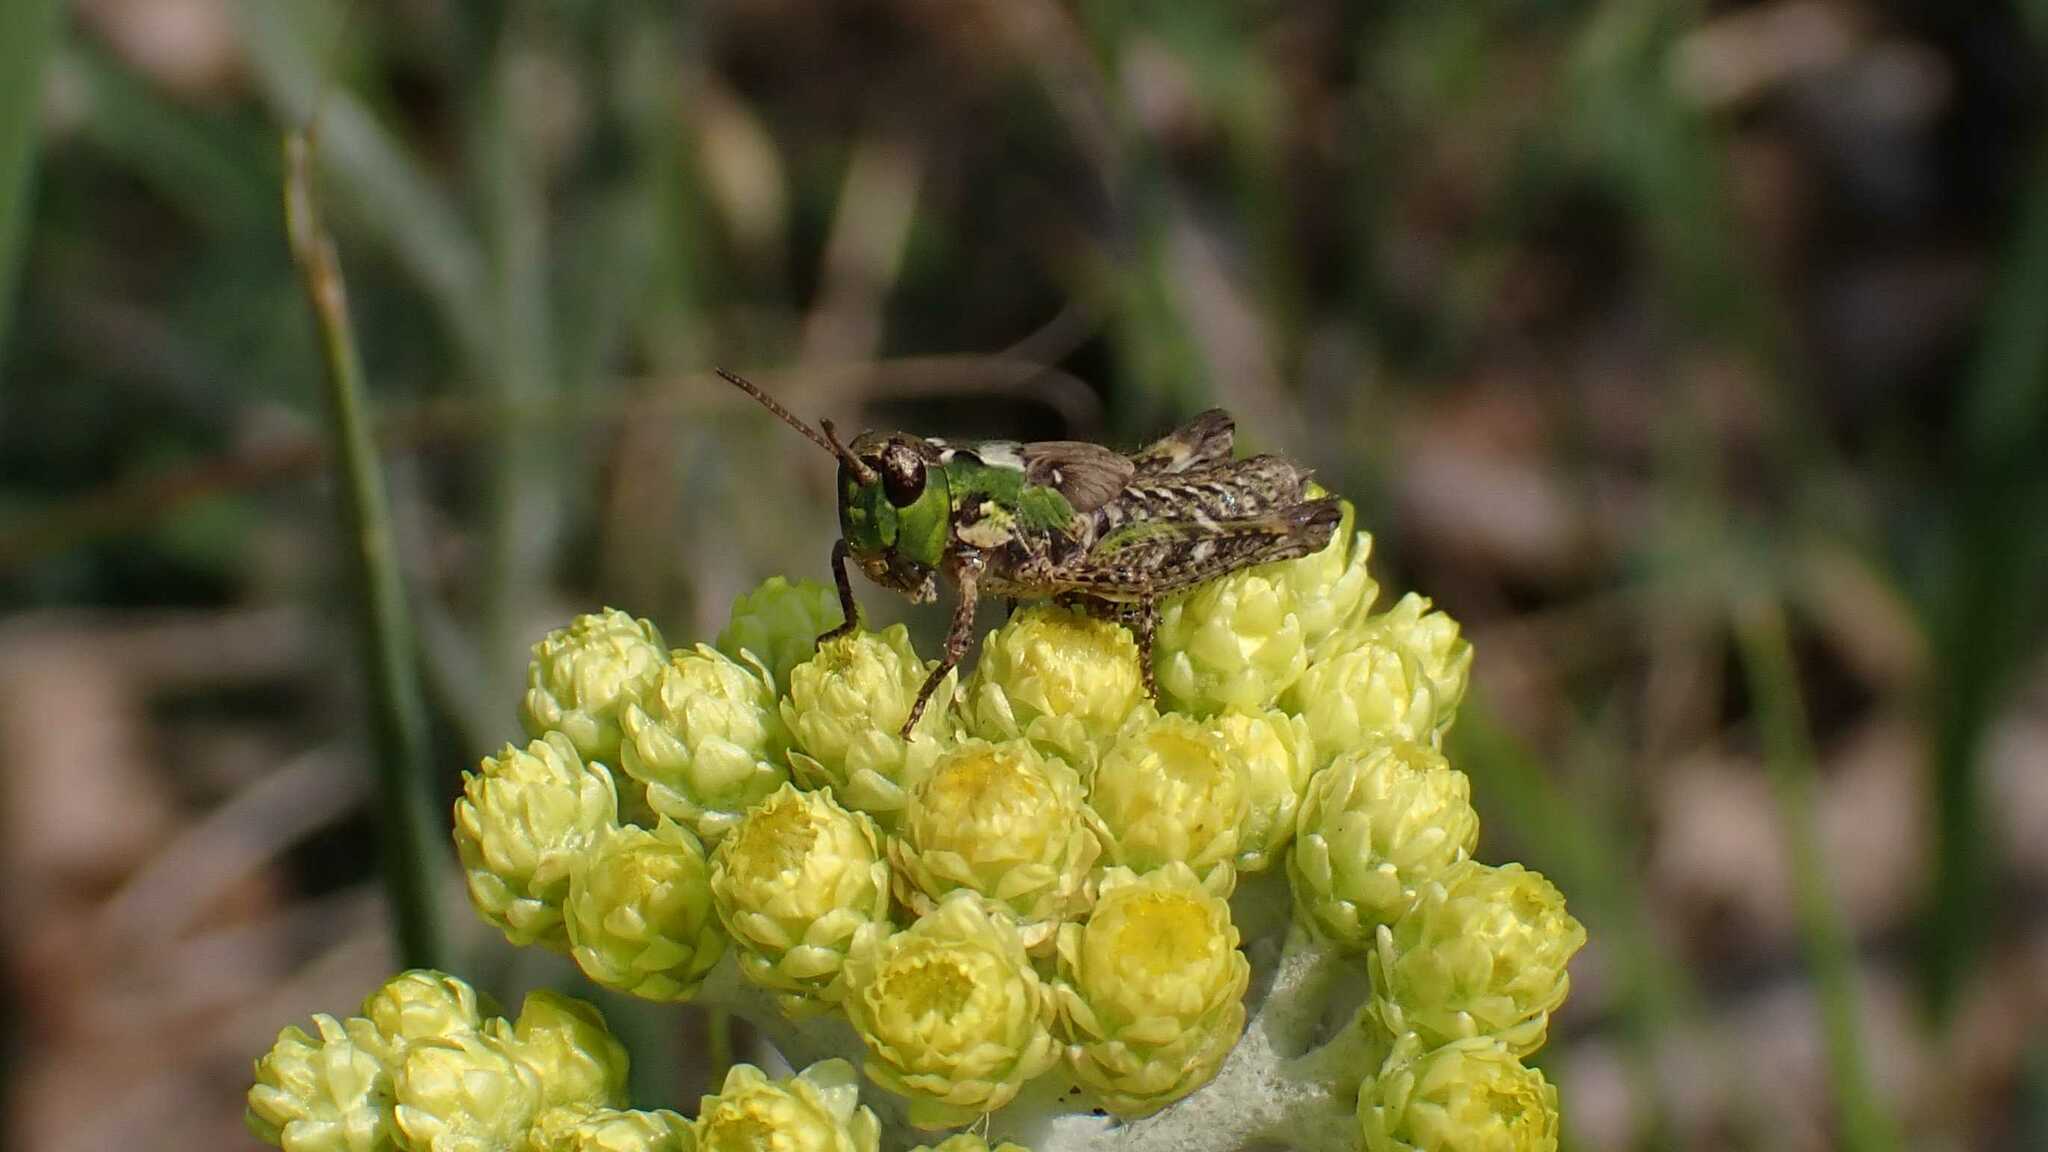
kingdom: Animalia
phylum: Arthropoda
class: Insecta
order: Orthoptera
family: Acrididae
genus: Myrmeleotettix
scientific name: Myrmeleotettix maculatus
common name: Mottled grasshopper
